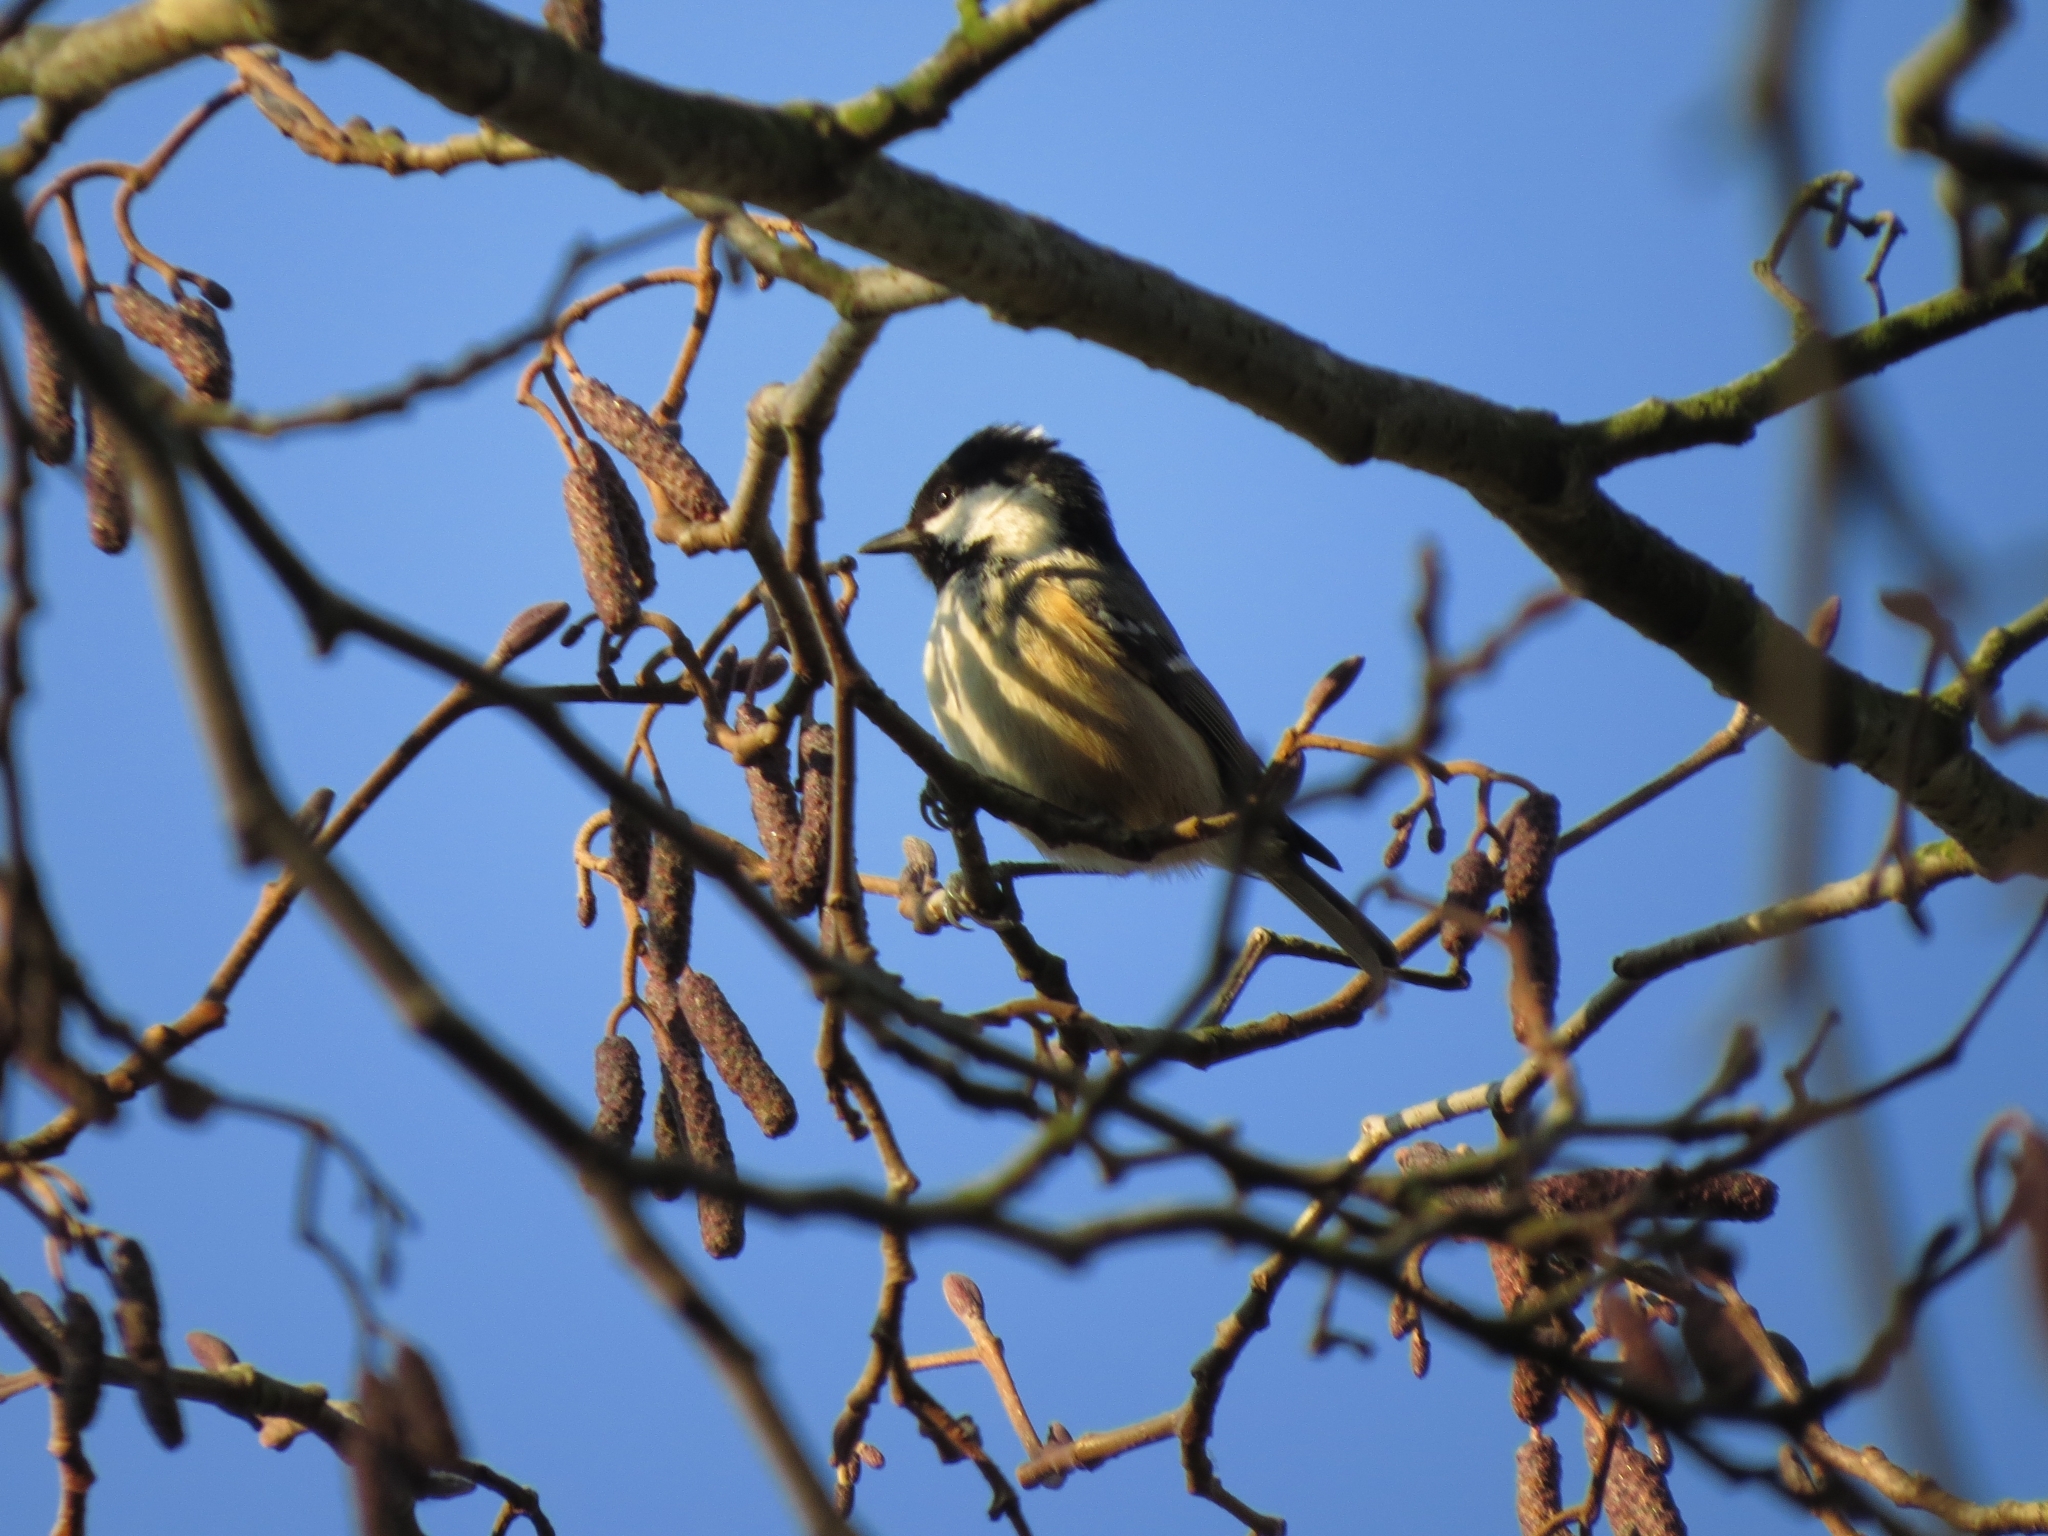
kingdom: Animalia
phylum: Chordata
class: Aves
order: Passeriformes
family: Paridae
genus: Periparus
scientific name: Periparus ater
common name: Coal tit
